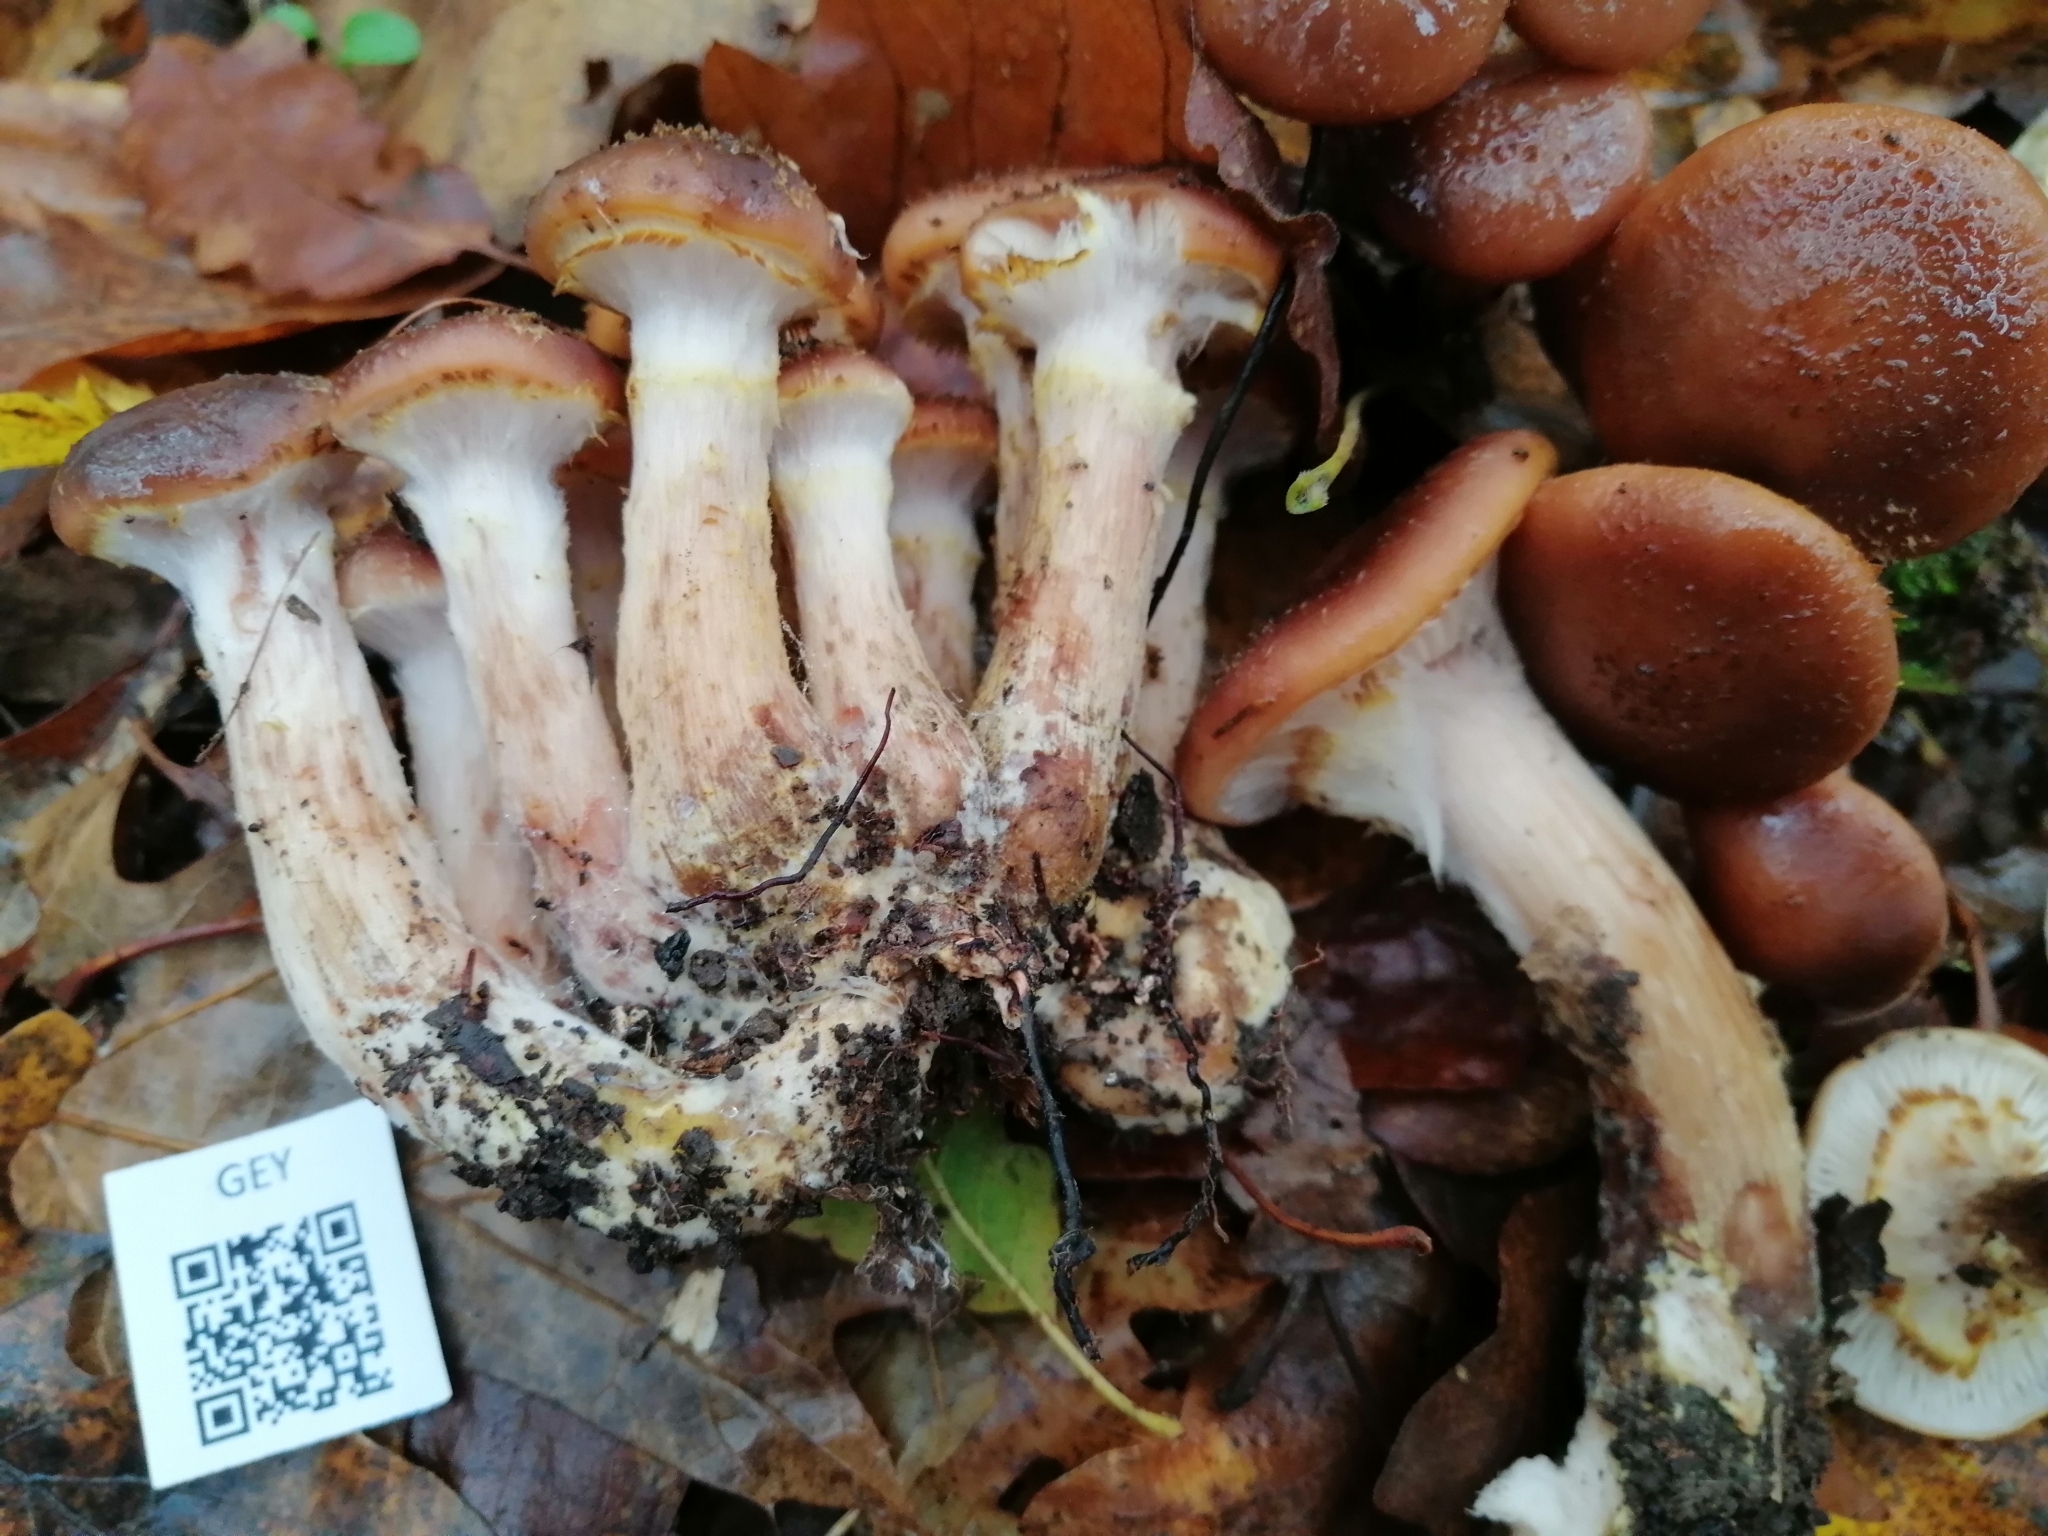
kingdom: Fungi
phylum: Basidiomycota
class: Agaricomycetes
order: Agaricales
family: Physalacriaceae
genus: Armillaria
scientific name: Armillaria gallica
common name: Bulbous honey fungus
